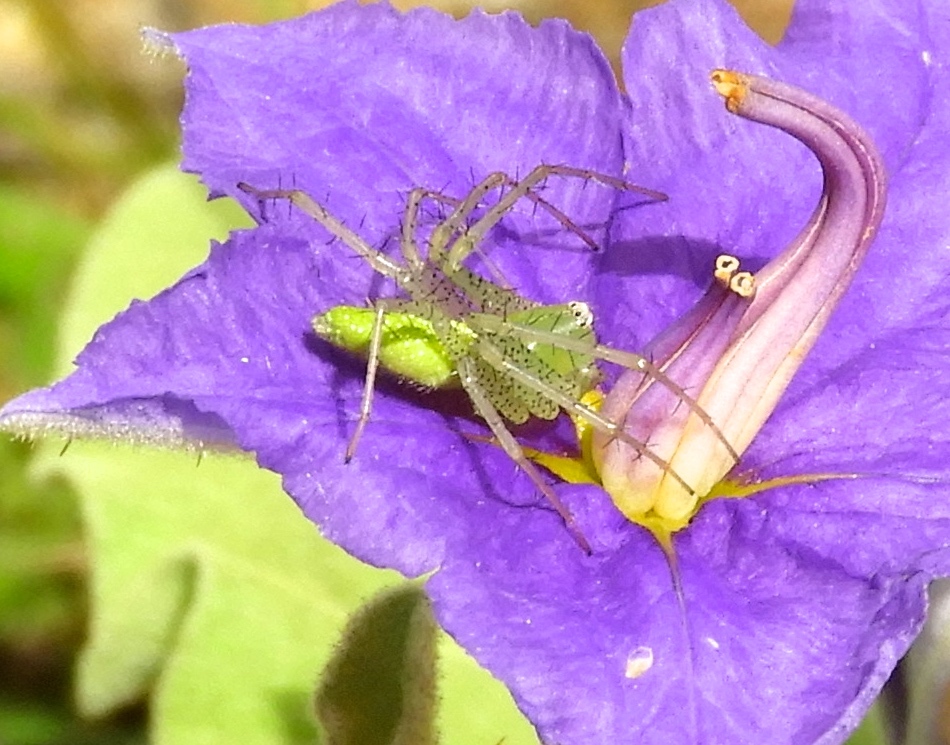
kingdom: Animalia
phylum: Arthropoda
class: Arachnida
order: Araneae
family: Oxyopidae
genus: Peucetia
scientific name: Peucetia longipalpis
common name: Lynx spiders
